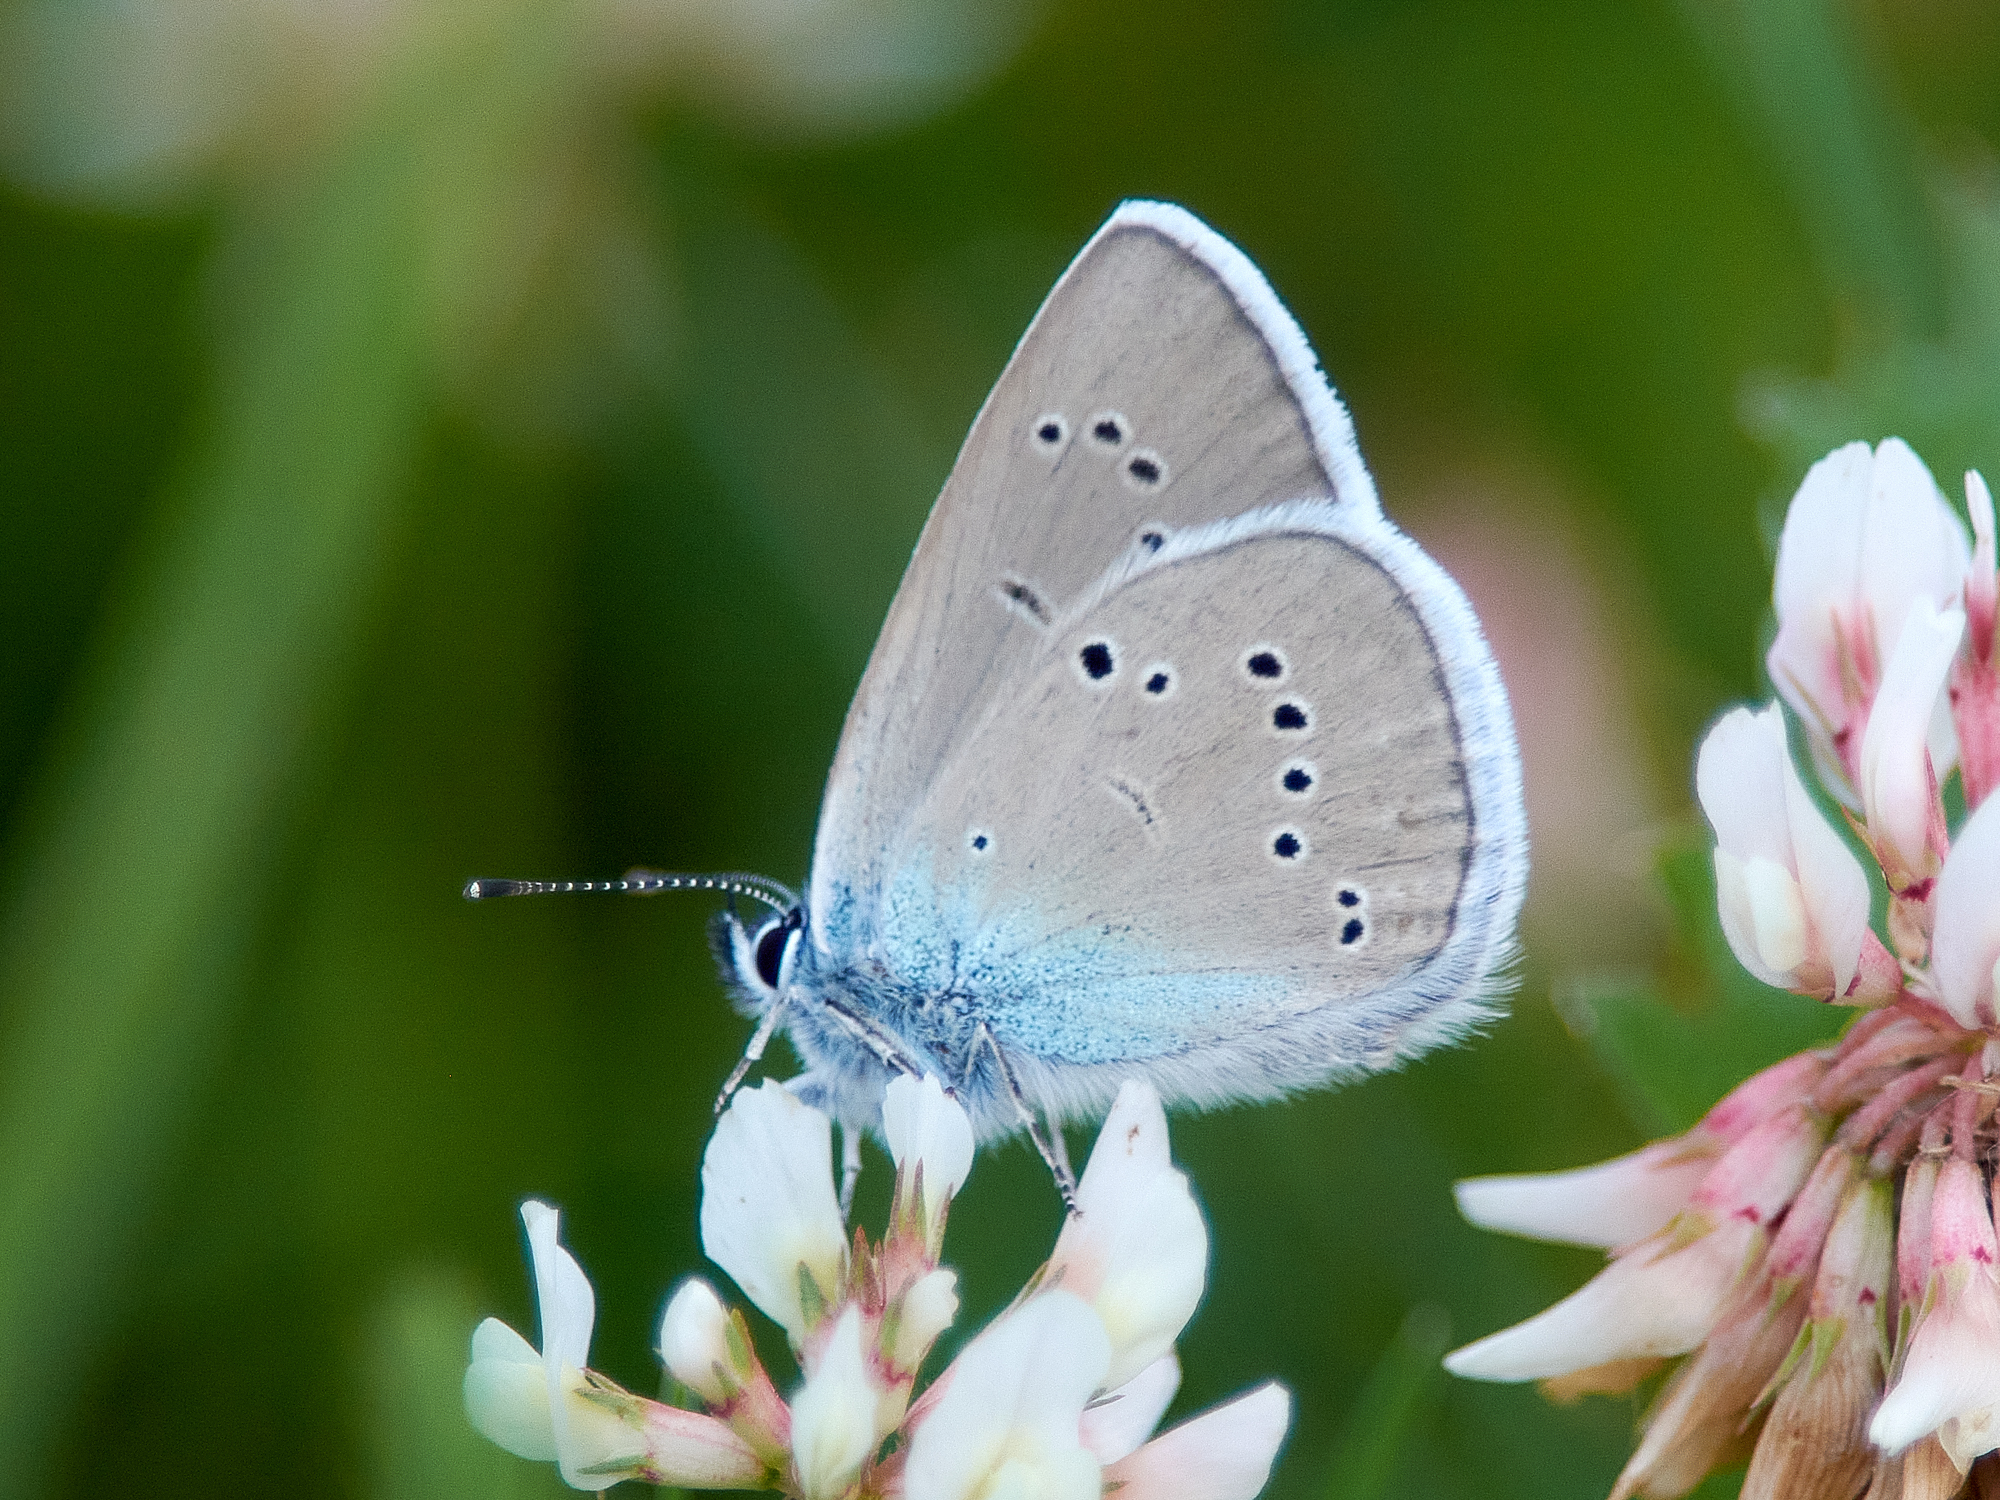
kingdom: Animalia
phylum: Arthropoda
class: Insecta
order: Lepidoptera
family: Lycaenidae
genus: Cyaniris
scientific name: Cyaniris semiargus
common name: Mazarine blue
